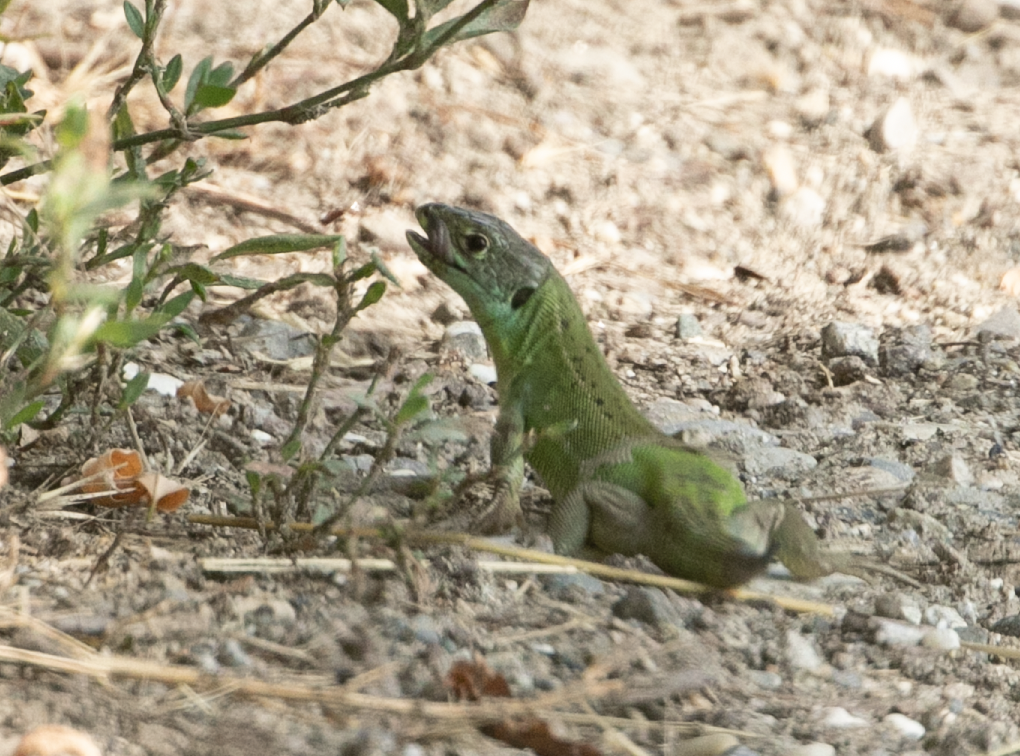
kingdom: Animalia
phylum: Chordata
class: Squamata
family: Lacertidae
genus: Lacerta
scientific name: Lacerta bilineata
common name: Western green lizard
